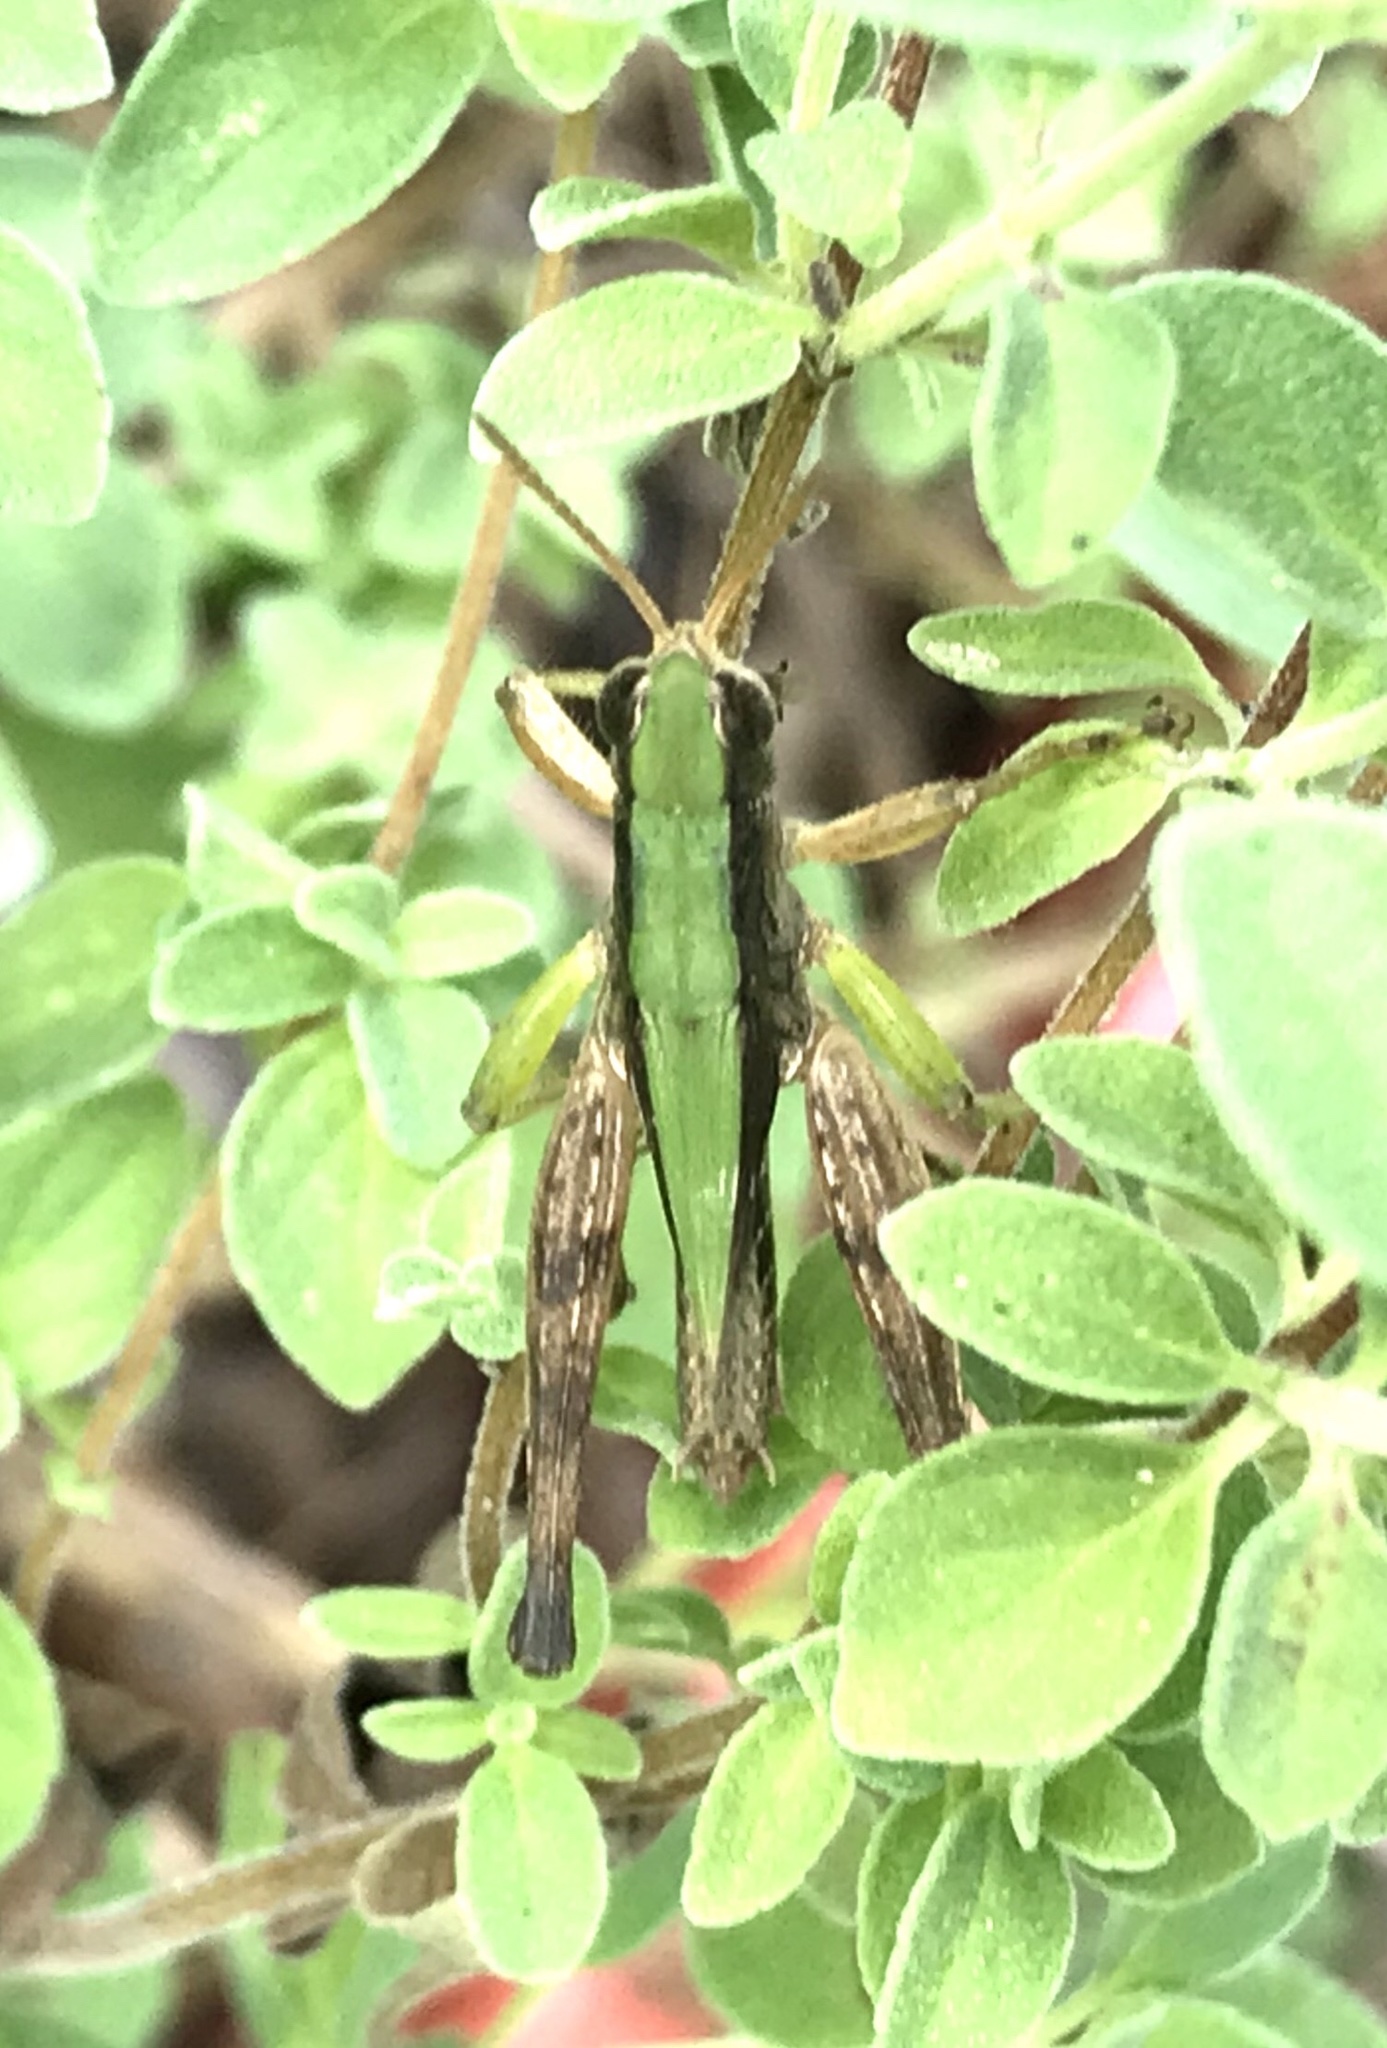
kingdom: Animalia
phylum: Arthropoda
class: Insecta
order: Orthoptera
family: Acrididae
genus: Dichromorpha
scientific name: Dichromorpha viridis
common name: Short-winged green grasshopper
